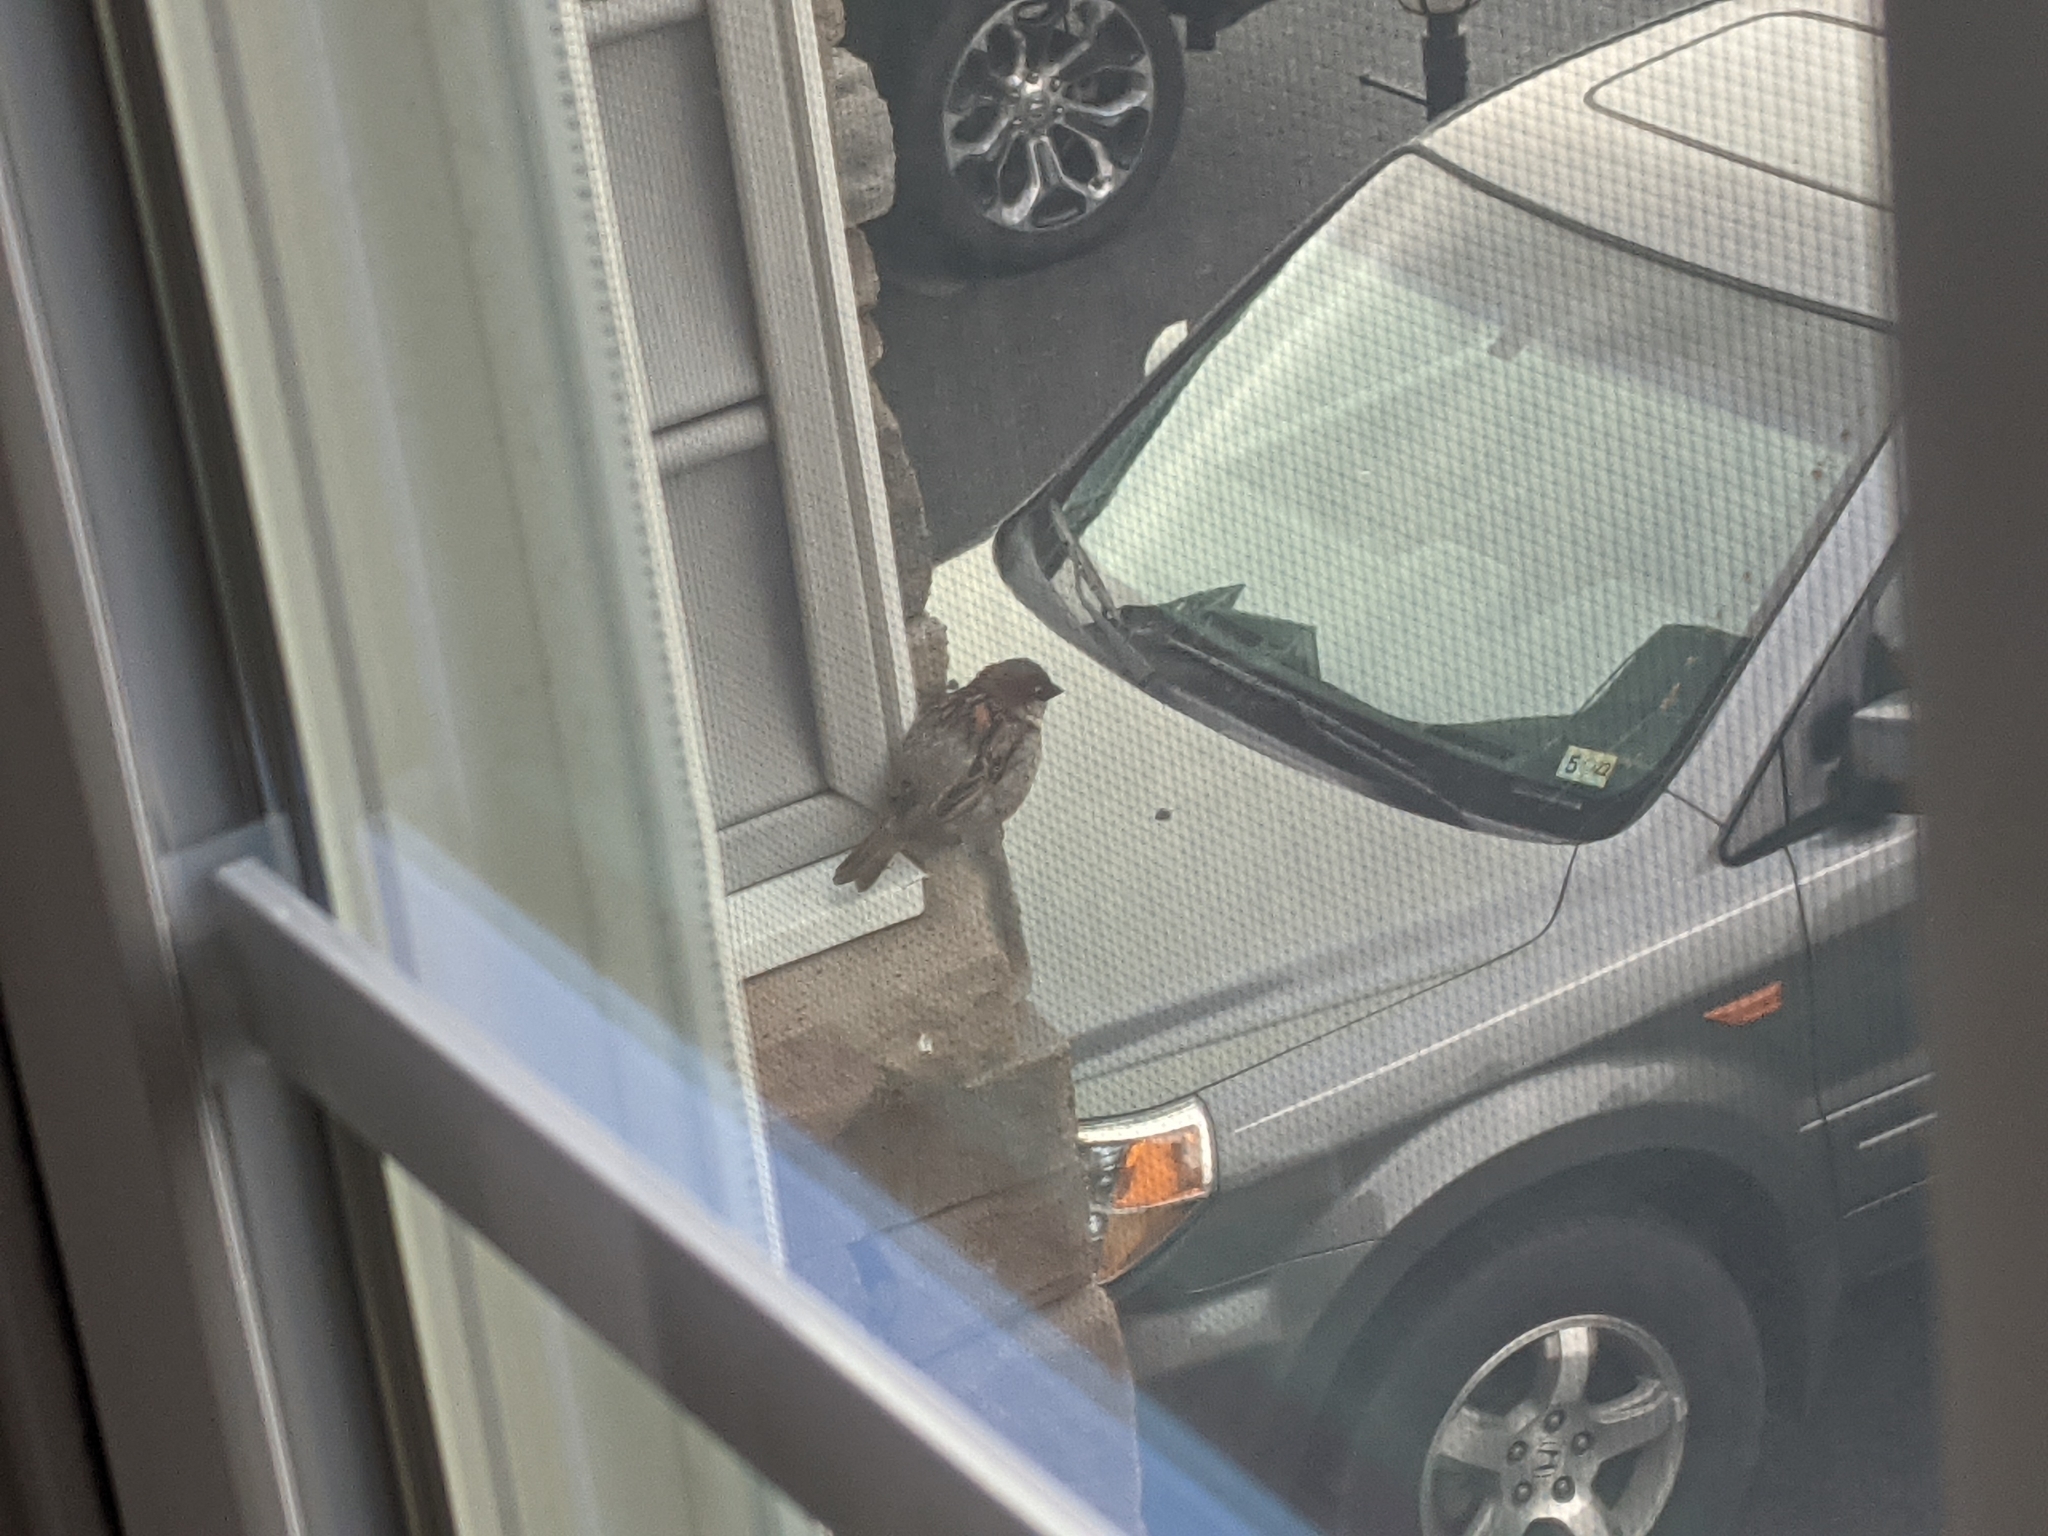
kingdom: Animalia
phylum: Chordata
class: Aves
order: Passeriformes
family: Passeridae
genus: Passer
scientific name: Passer domesticus
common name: House sparrow
